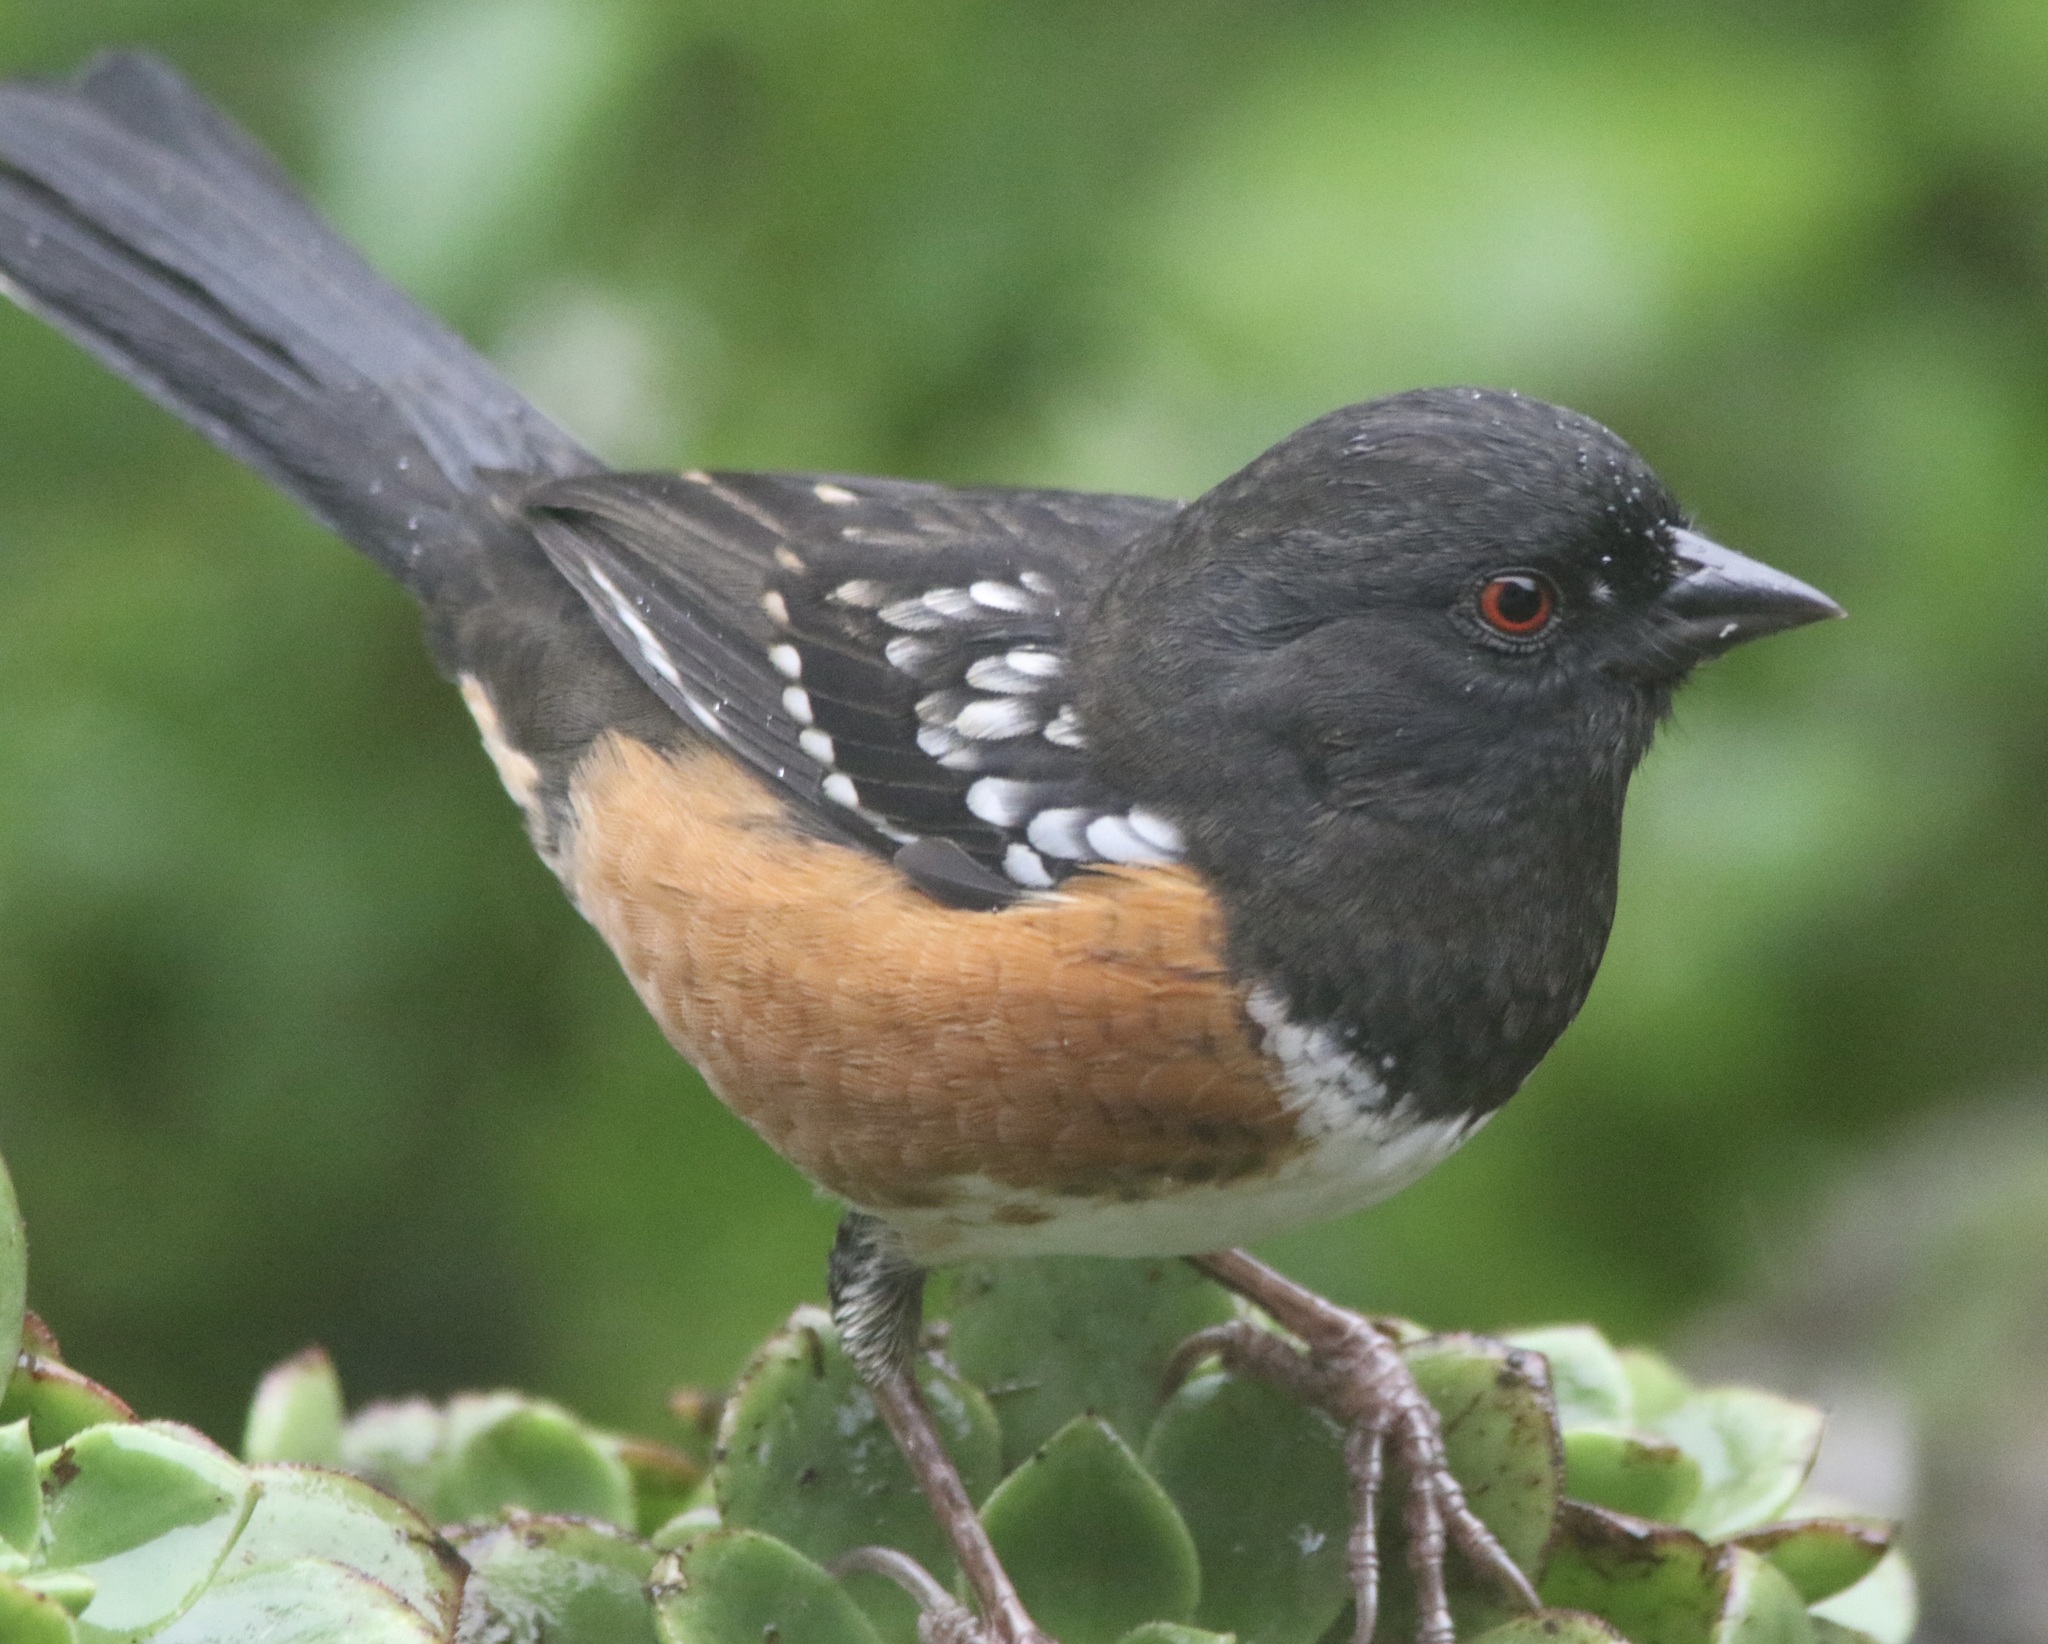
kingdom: Animalia
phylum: Chordata
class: Aves
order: Passeriformes
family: Passerellidae
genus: Pipilo
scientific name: Pipilo maculatus
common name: Spotted towhee
